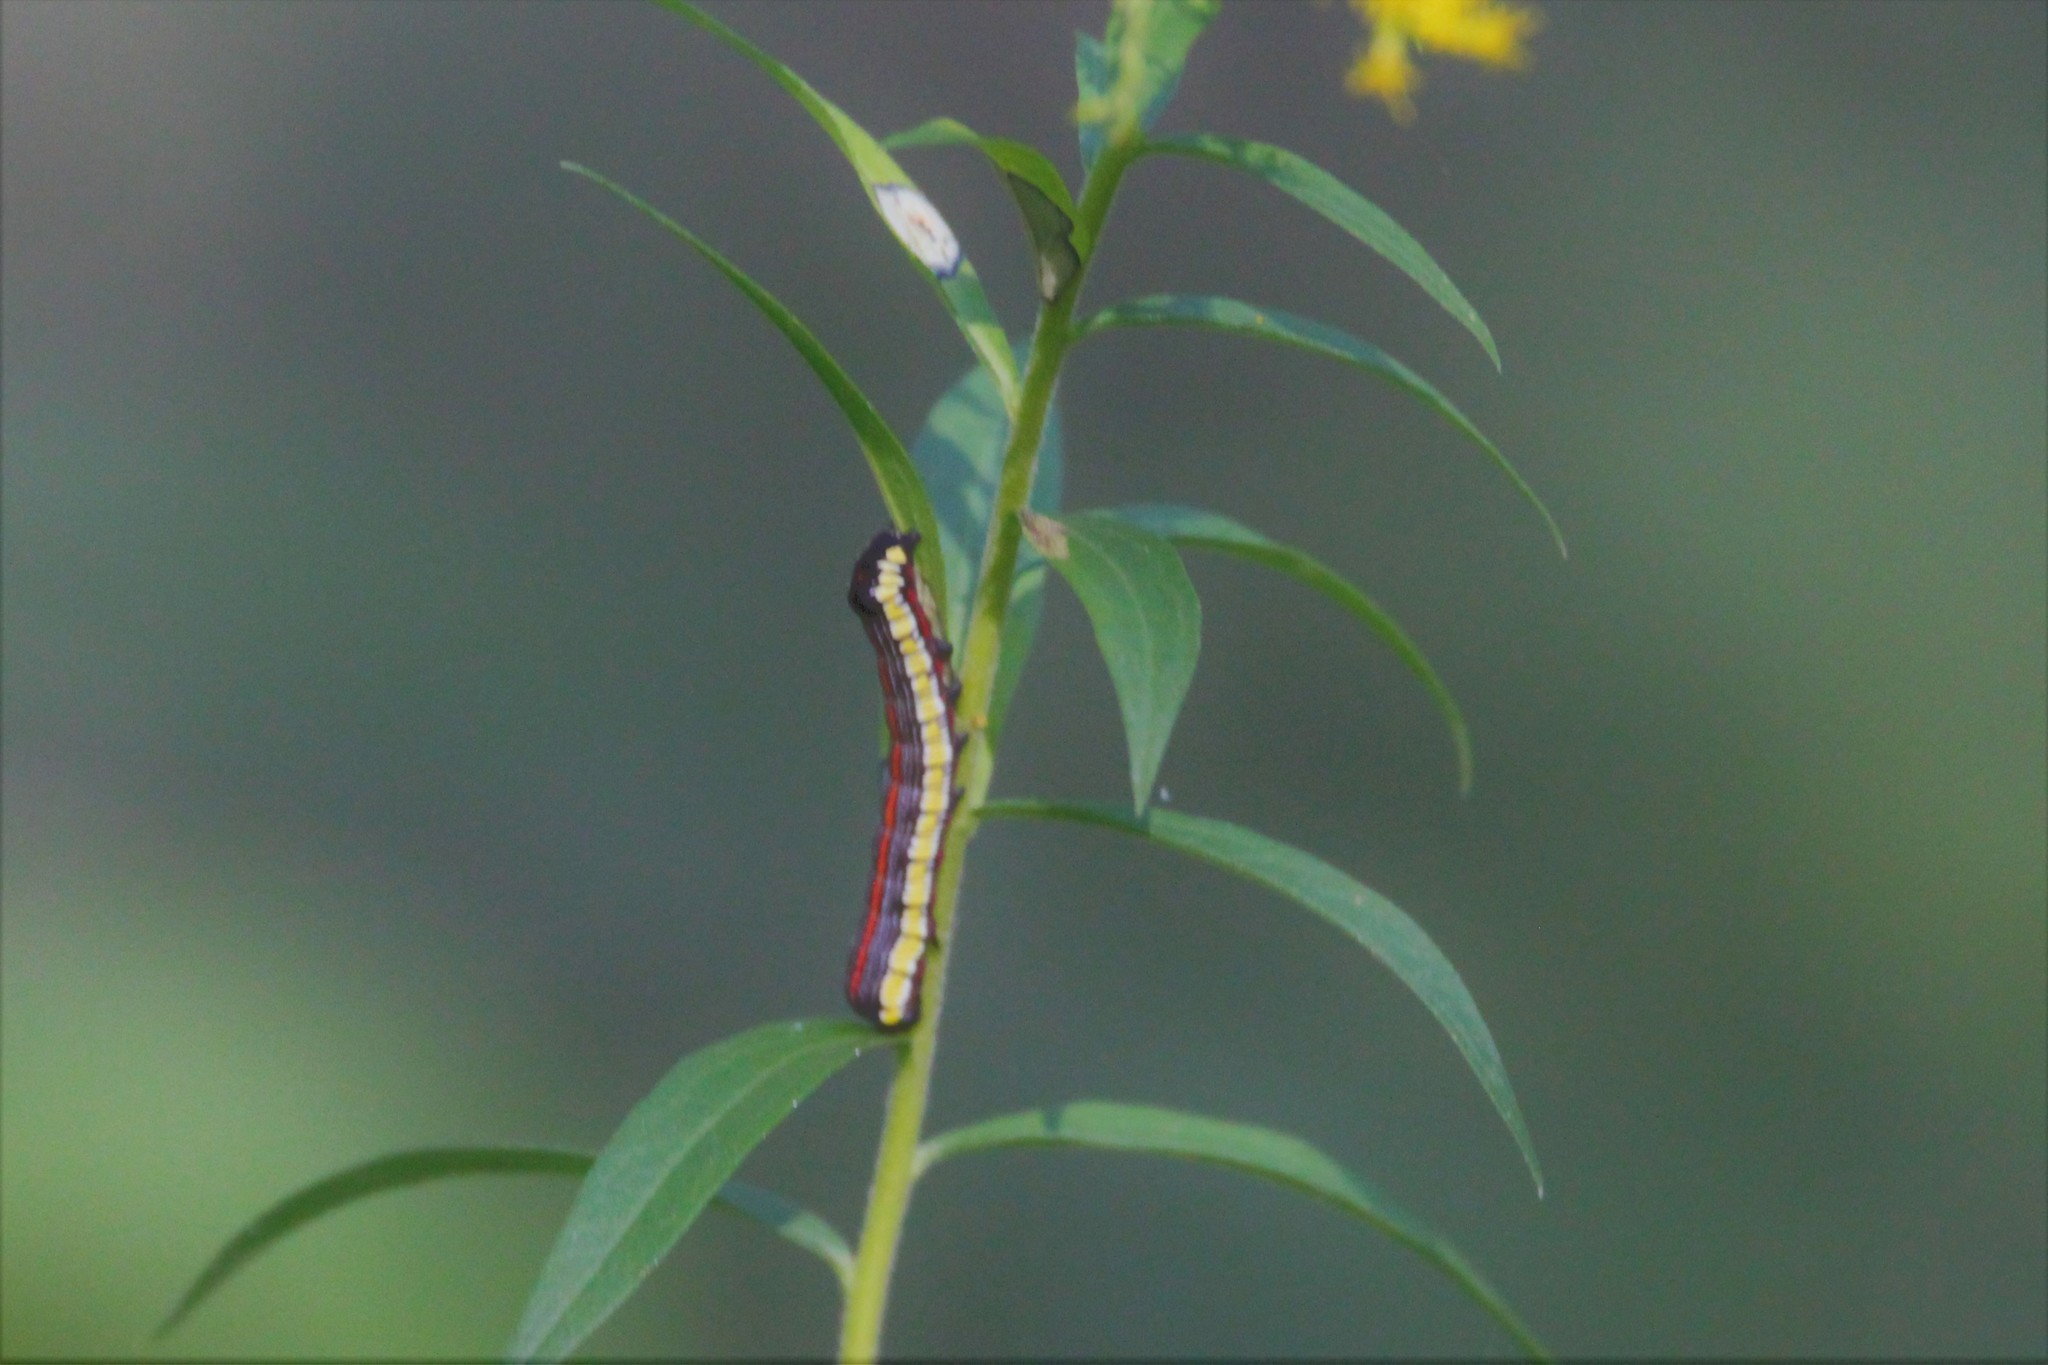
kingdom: Animalia
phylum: Arthropoda
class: Insecta
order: Lepidoptera
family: Noctuidae
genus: Cucullia
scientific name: Cucullia convexipennis
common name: Brown-hooded owlet
